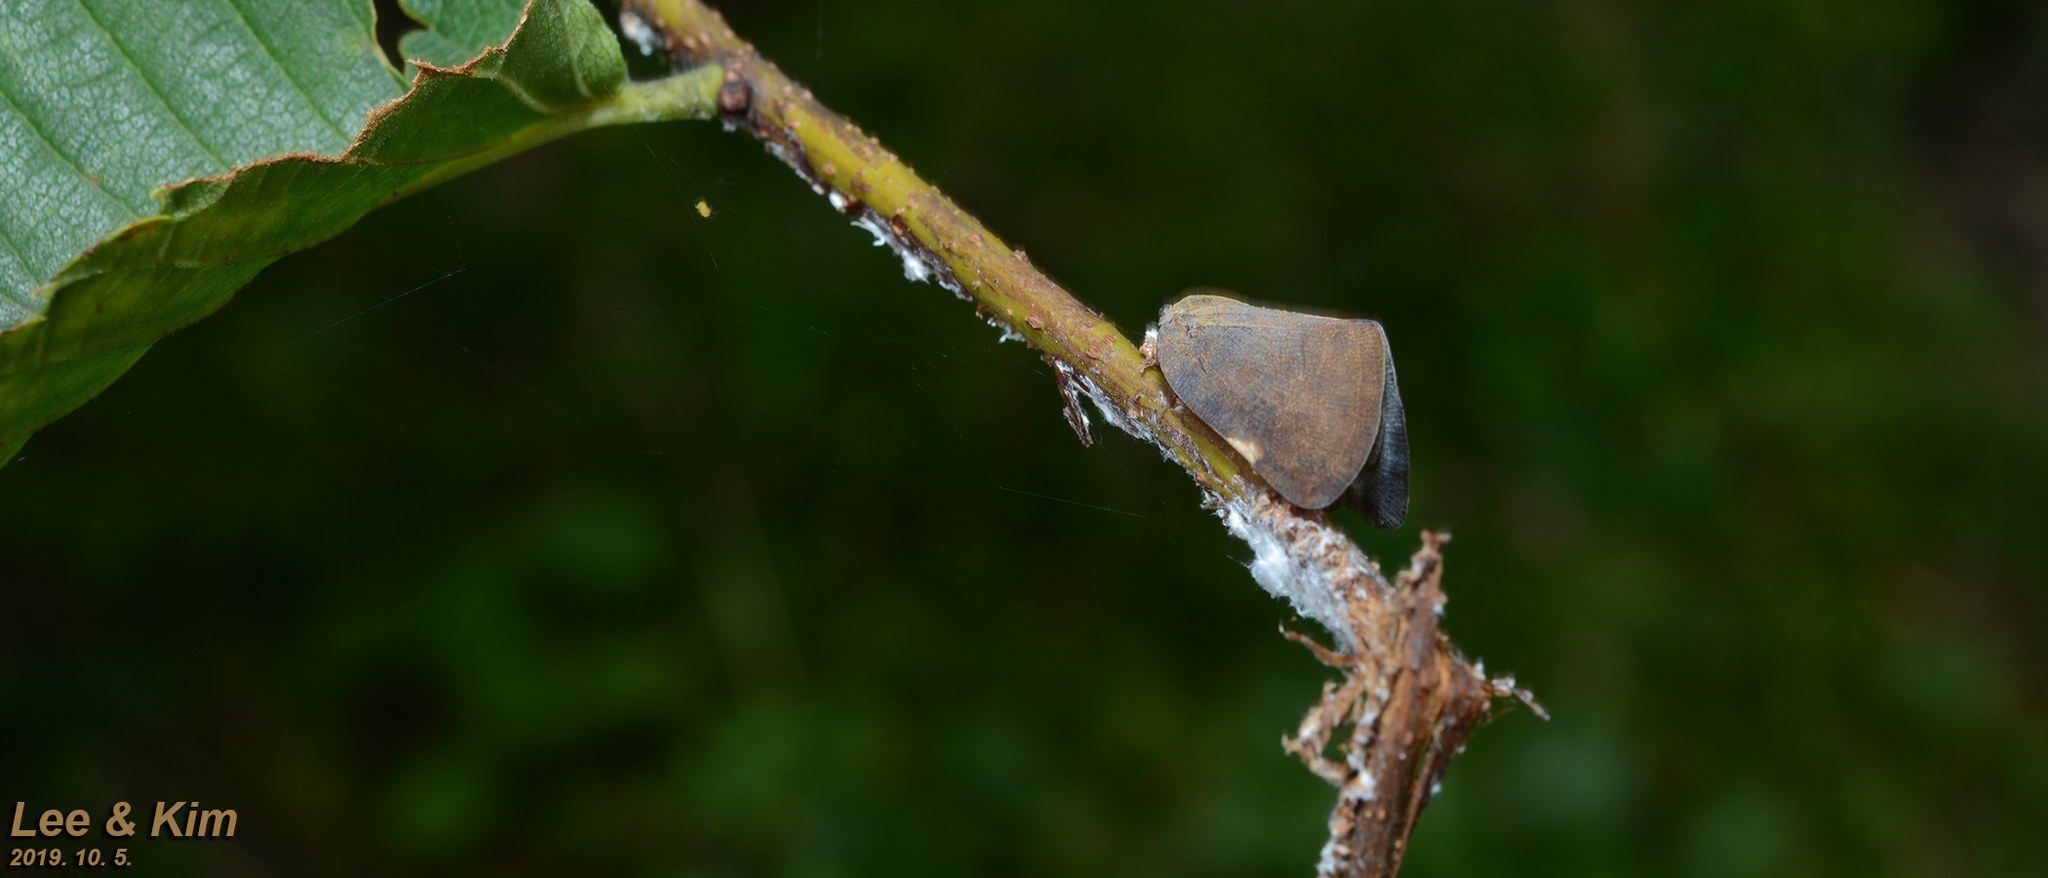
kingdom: Animalia
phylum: Arthropoda
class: Insecta
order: Hemiptera
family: Ricaniidae
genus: Ricanula
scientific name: Ricanula sublimata
